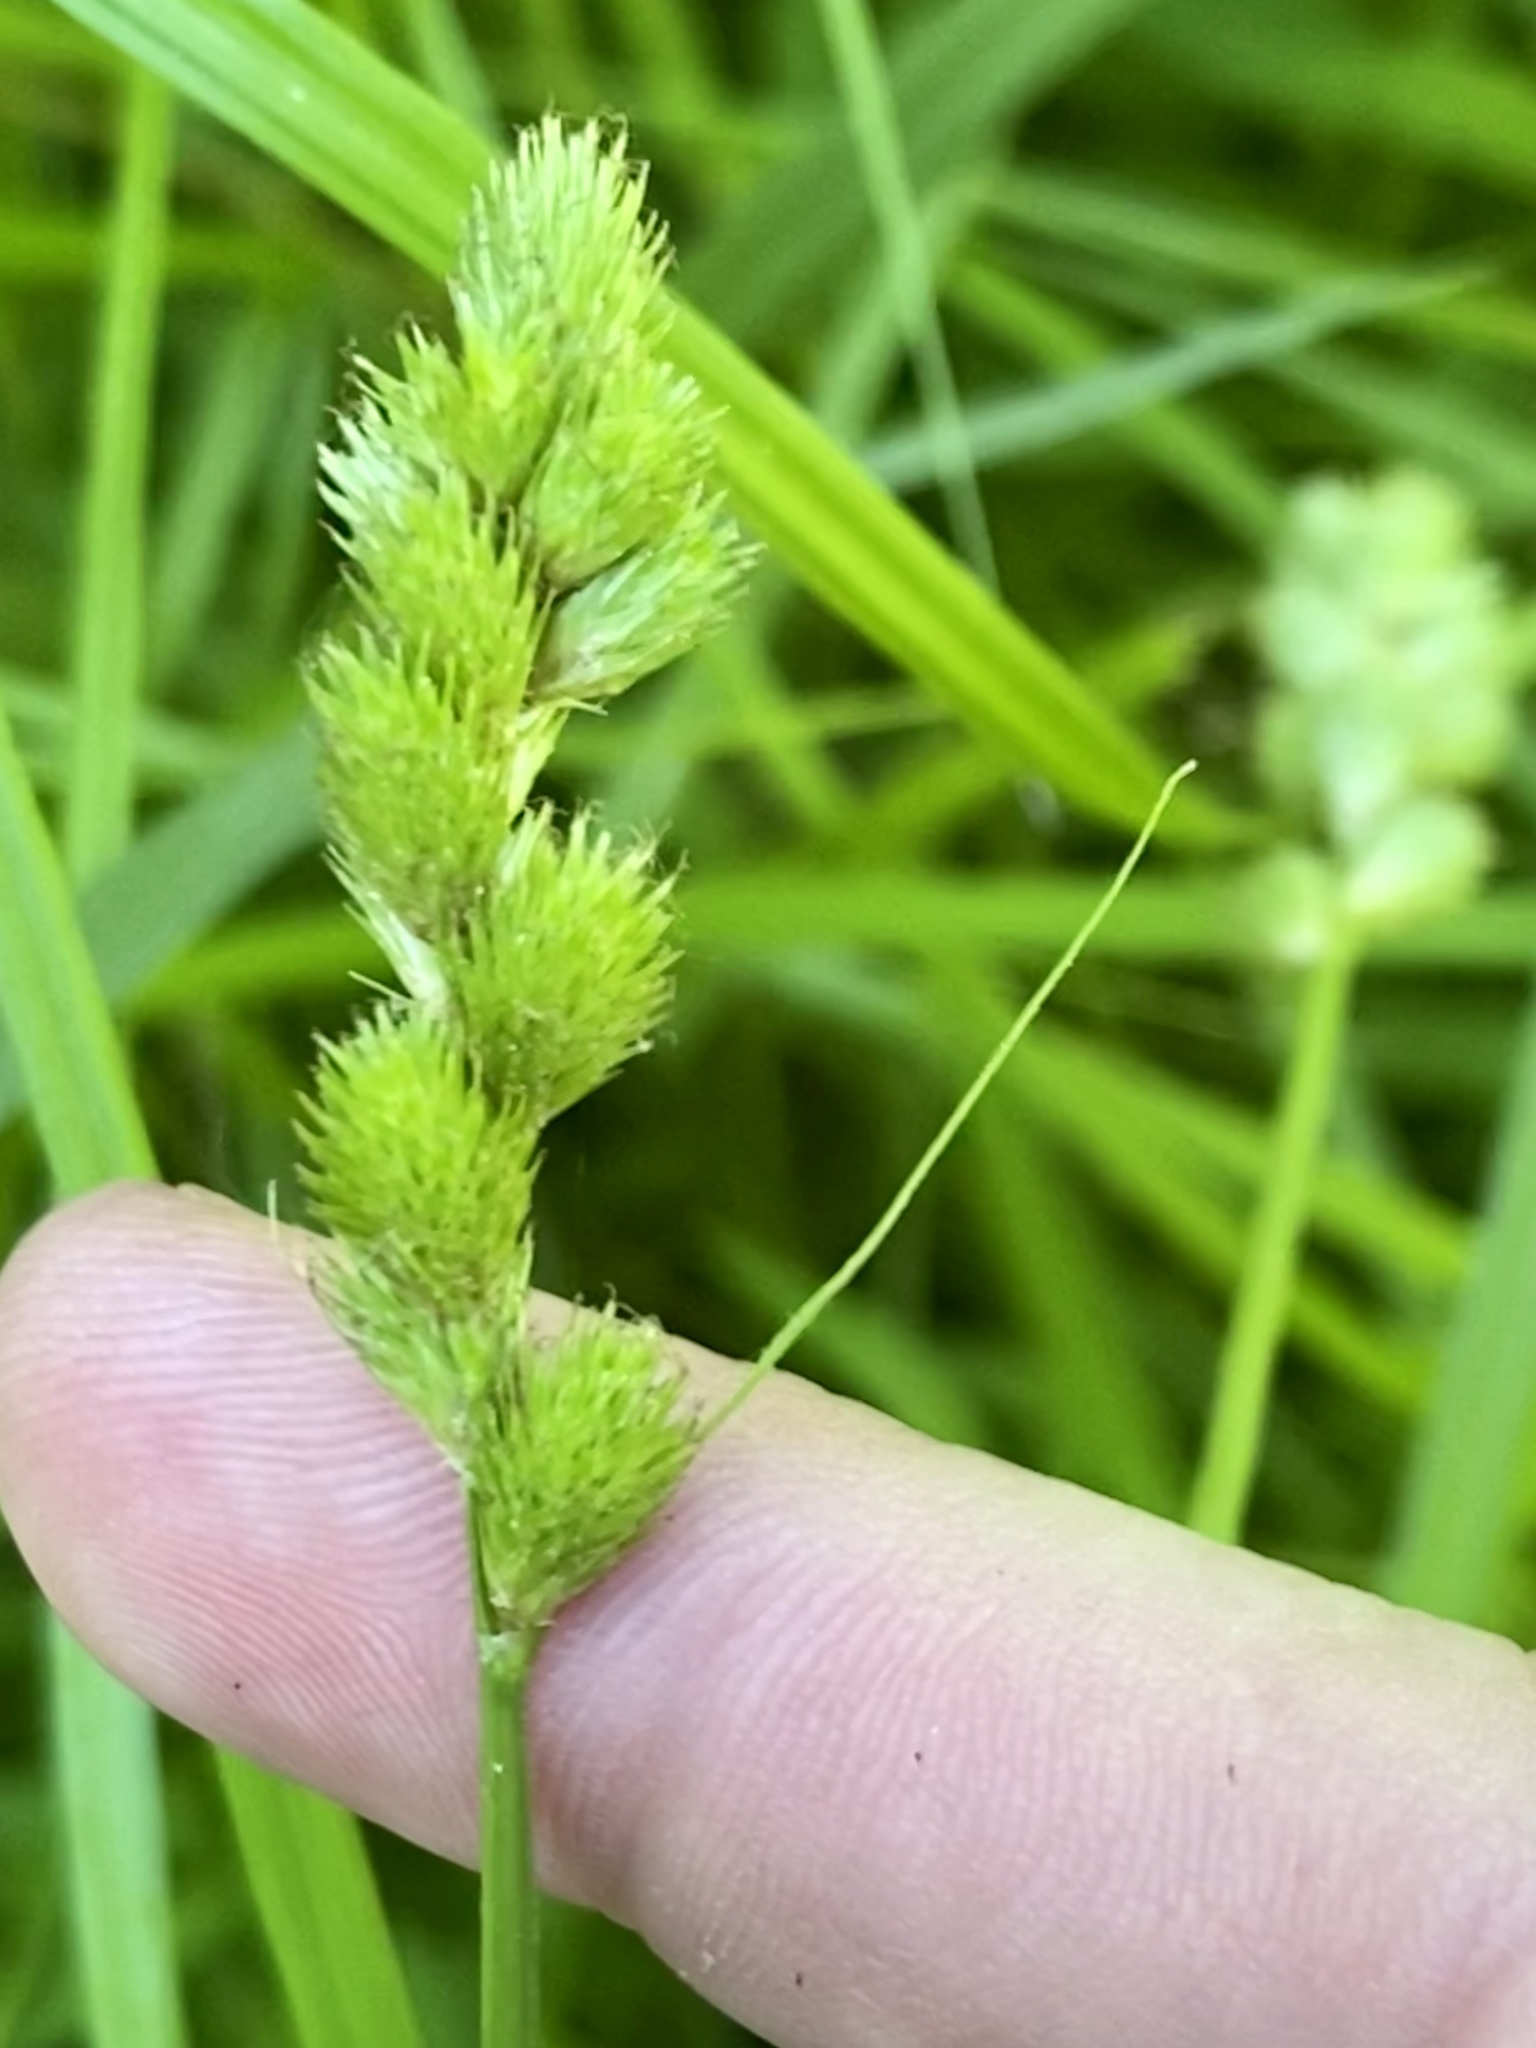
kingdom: Plantae
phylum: Tracheophyta
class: Liliopsida
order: Poales
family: Cyperaceae
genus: Carex
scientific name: Carex tribuloides
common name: Blunt broom sedge
